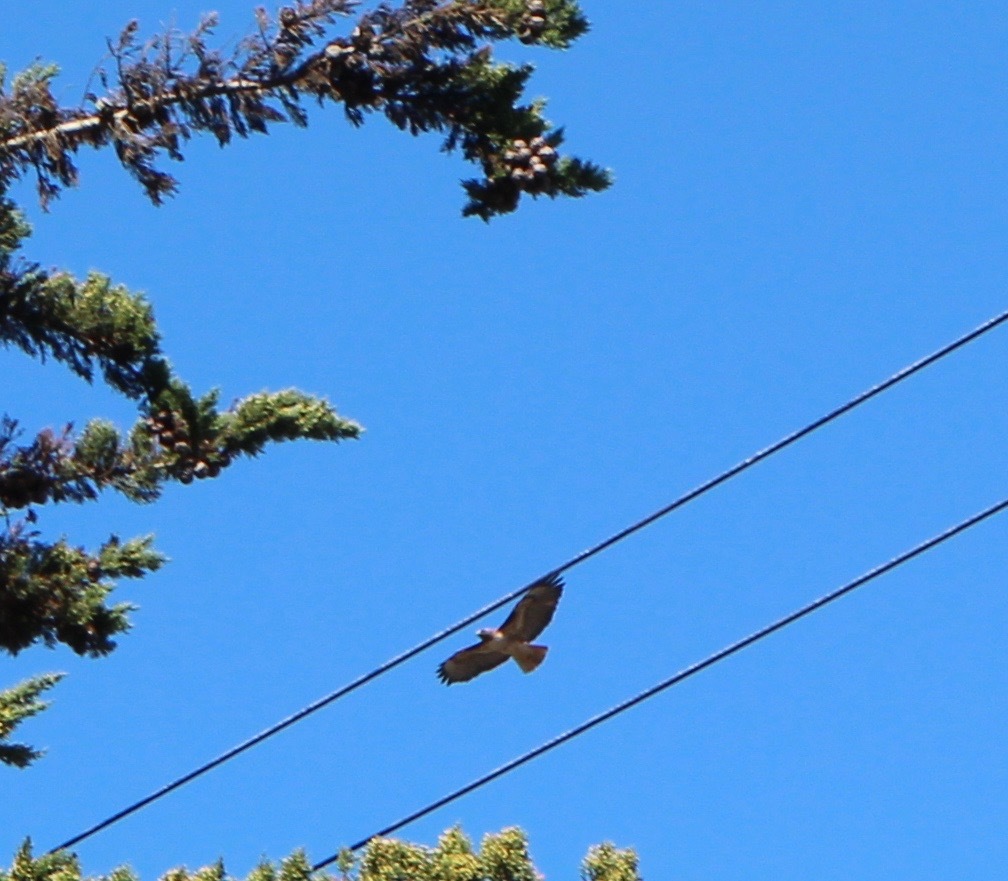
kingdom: Animalia
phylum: Chordata
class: Aves
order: Accipitriformes
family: Accipitridae
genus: Buteo
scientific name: Buteo jamaicensis
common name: Red-tailed hawk
